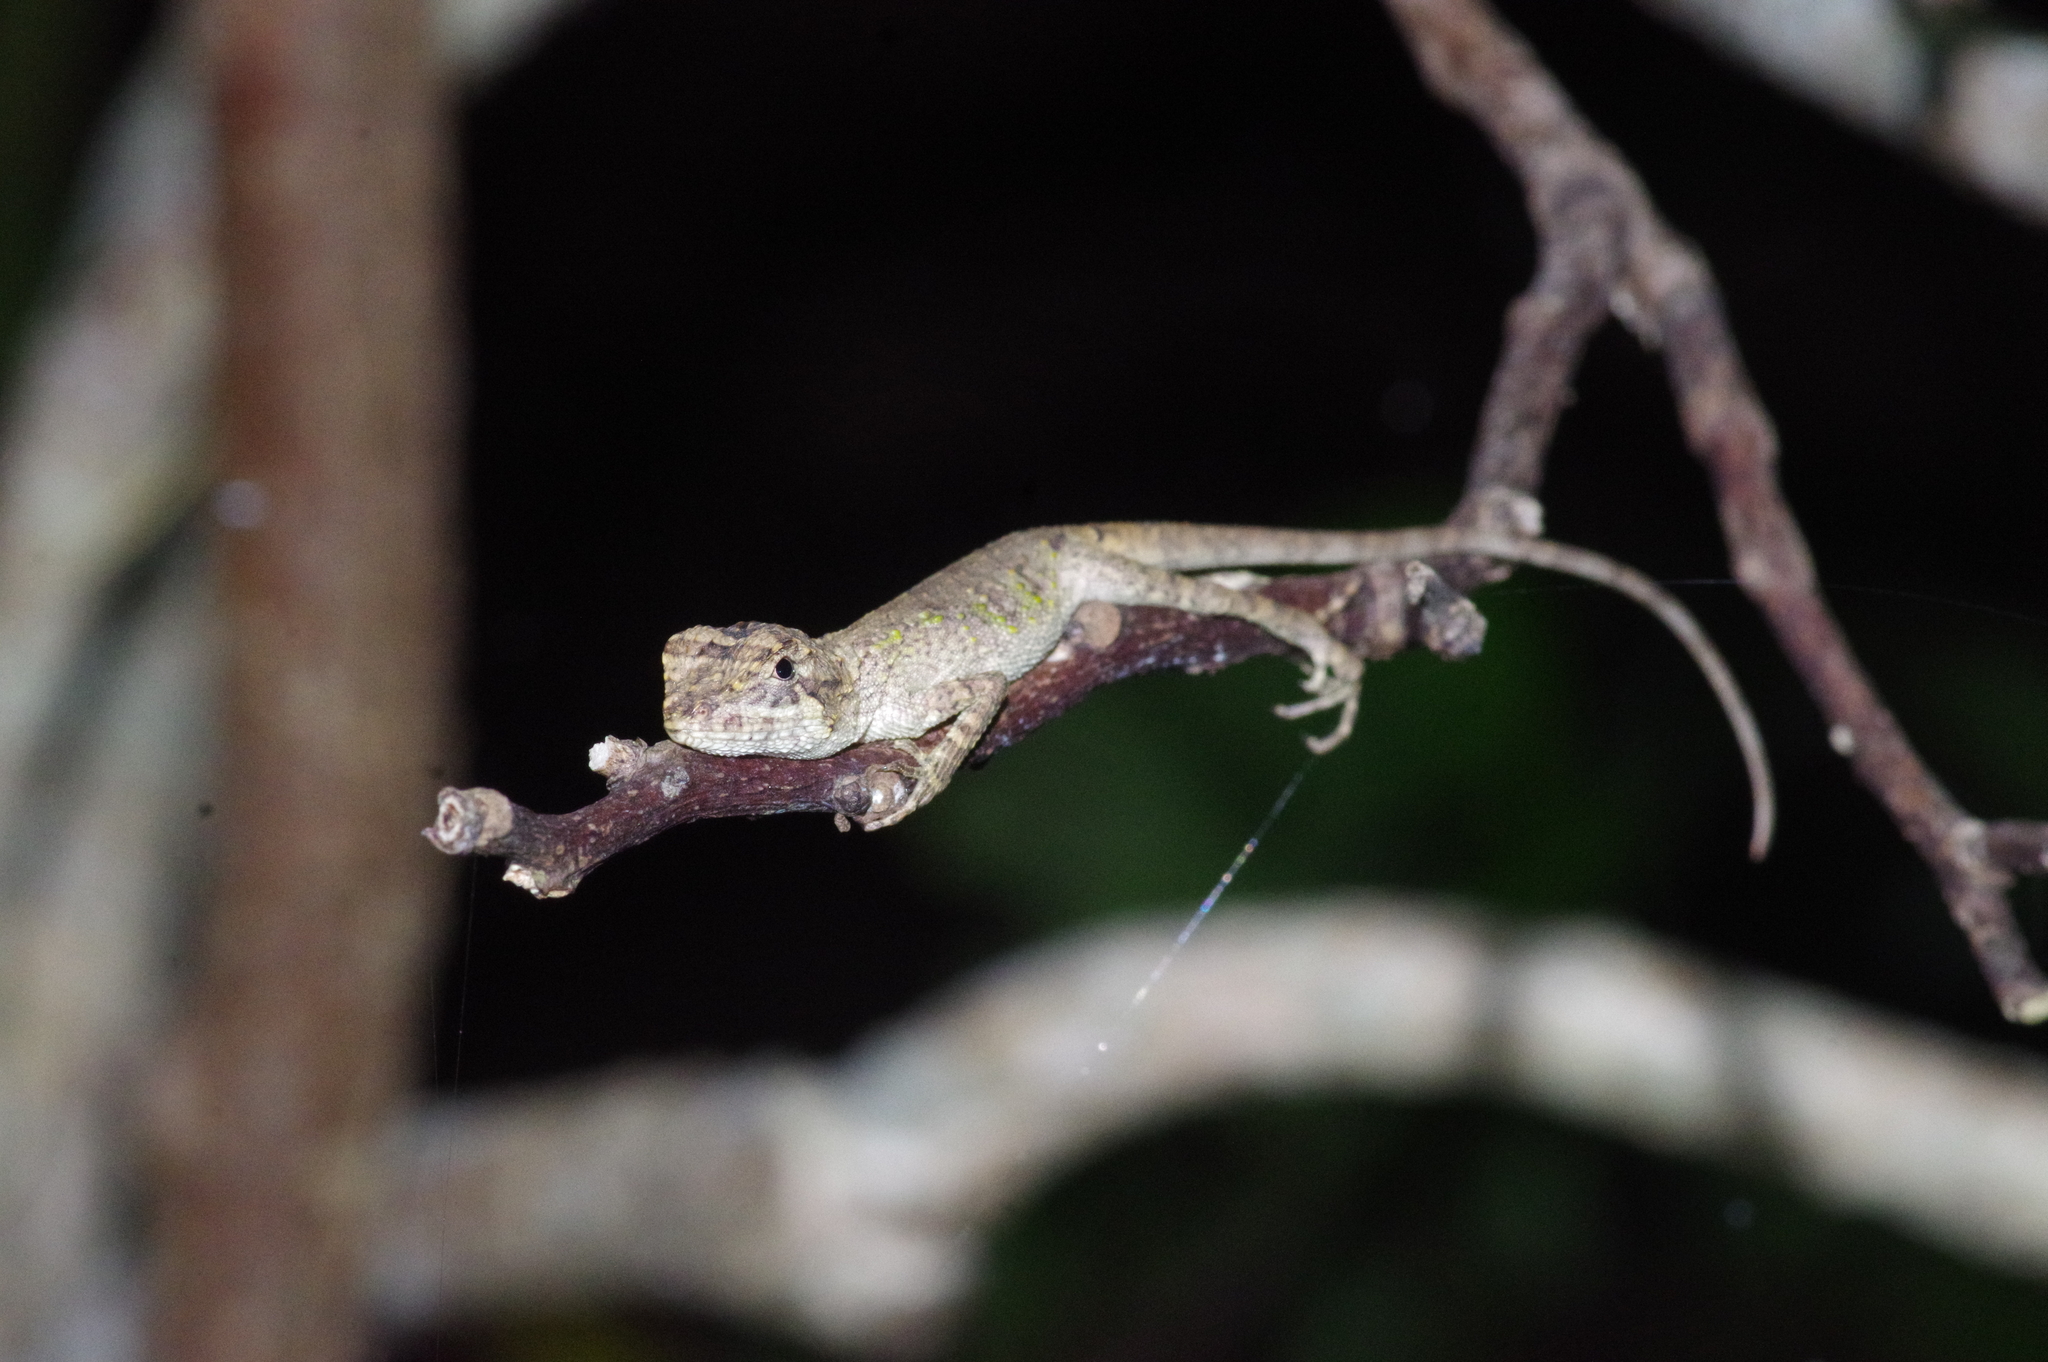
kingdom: Fungi
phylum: Basidiomycota
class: Agaricomycetes
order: Boletales
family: Diplocystidiaceae
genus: Diploderma
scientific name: Diploderma polygonatum
